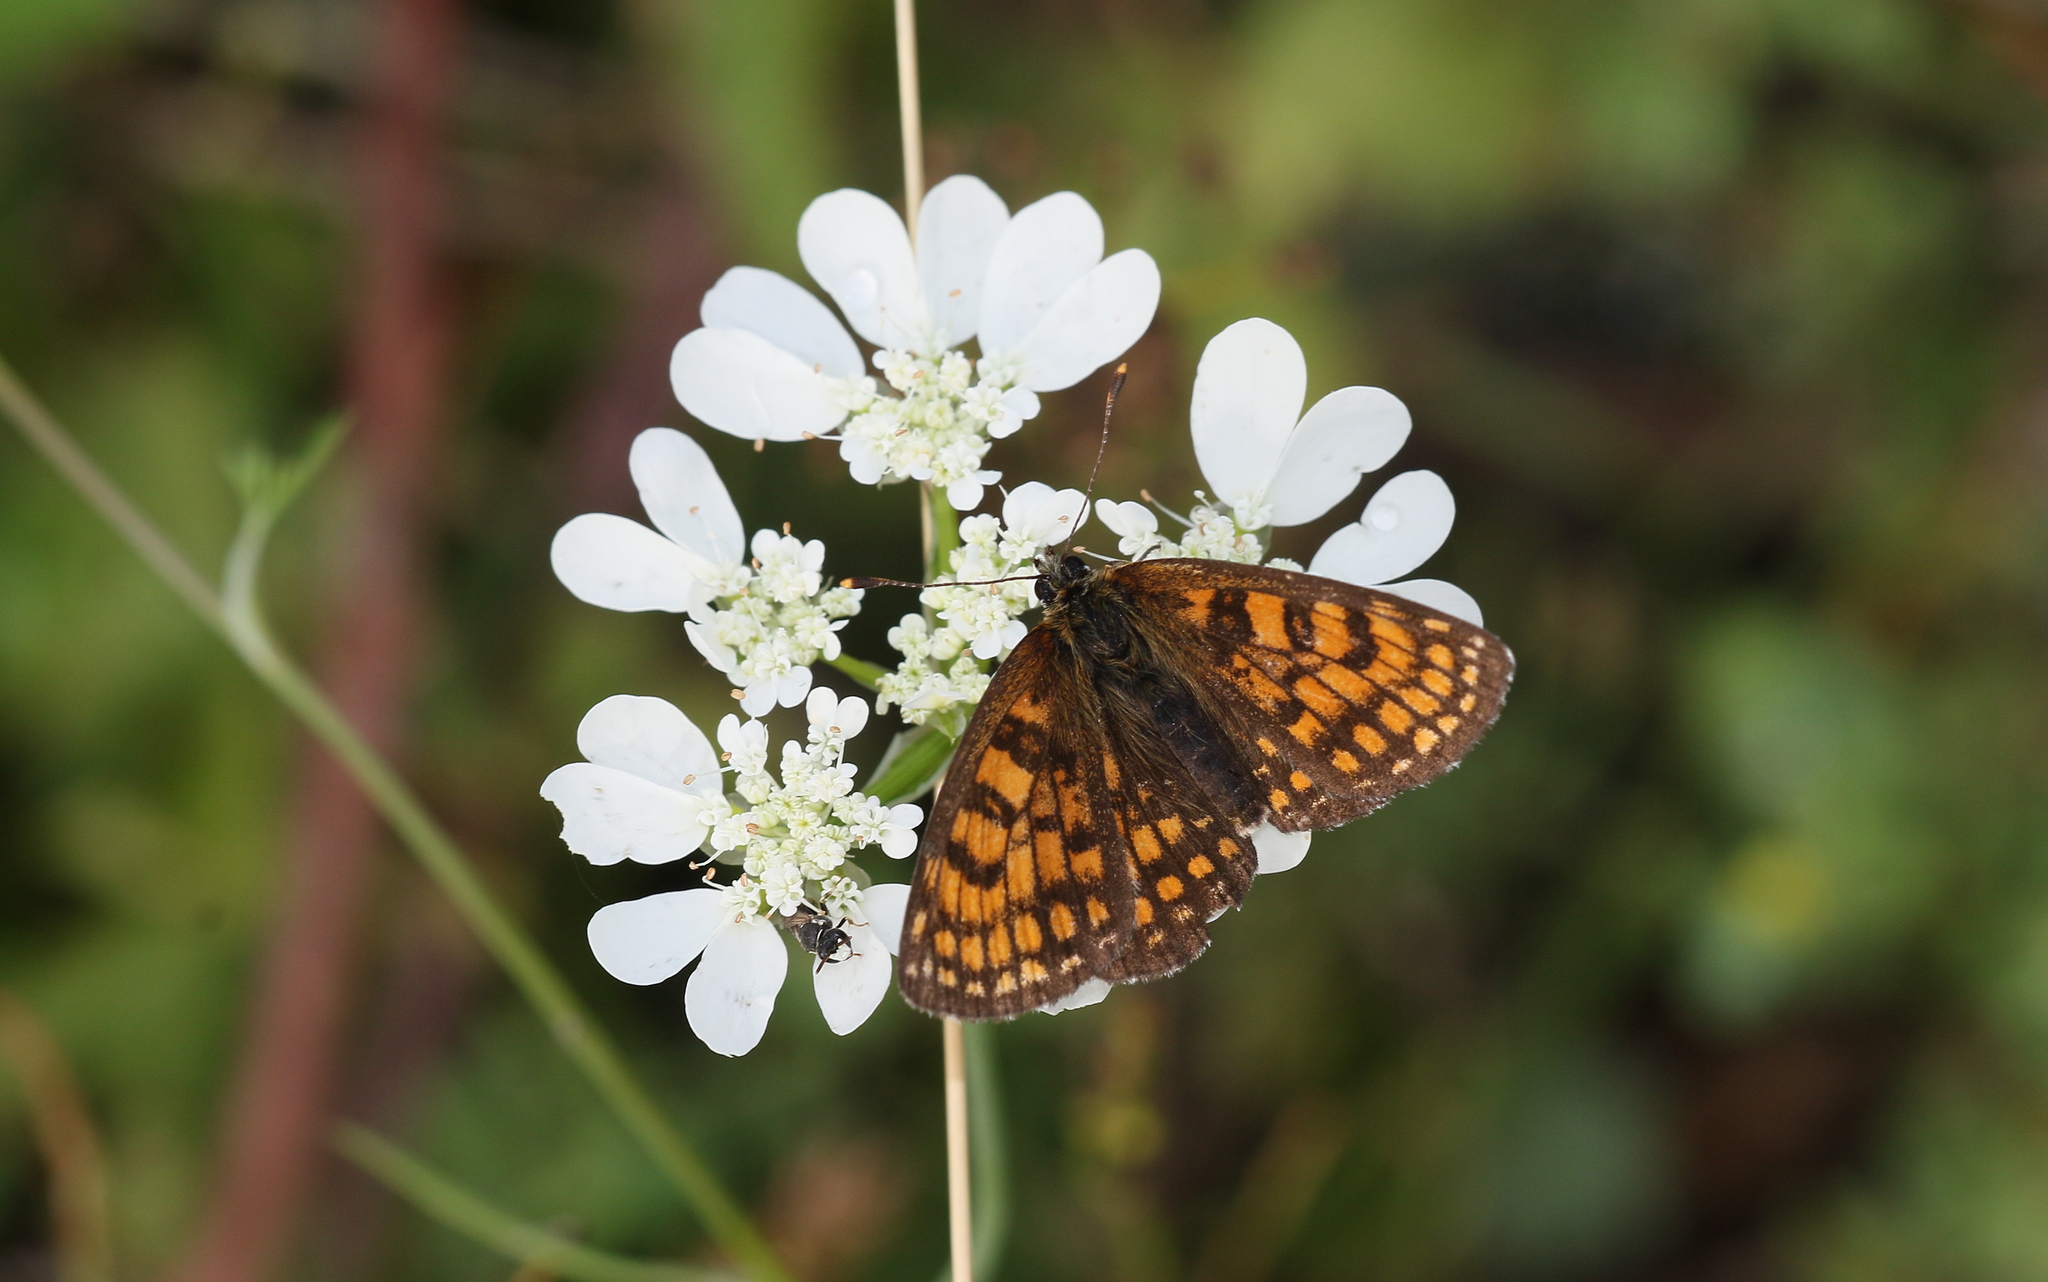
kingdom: Animalia
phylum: Arthropoda
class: Insecta
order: Lepidoptera
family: Nymphalidae
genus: Melitaea
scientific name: Melitaea athalia
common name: Heath fritillary
